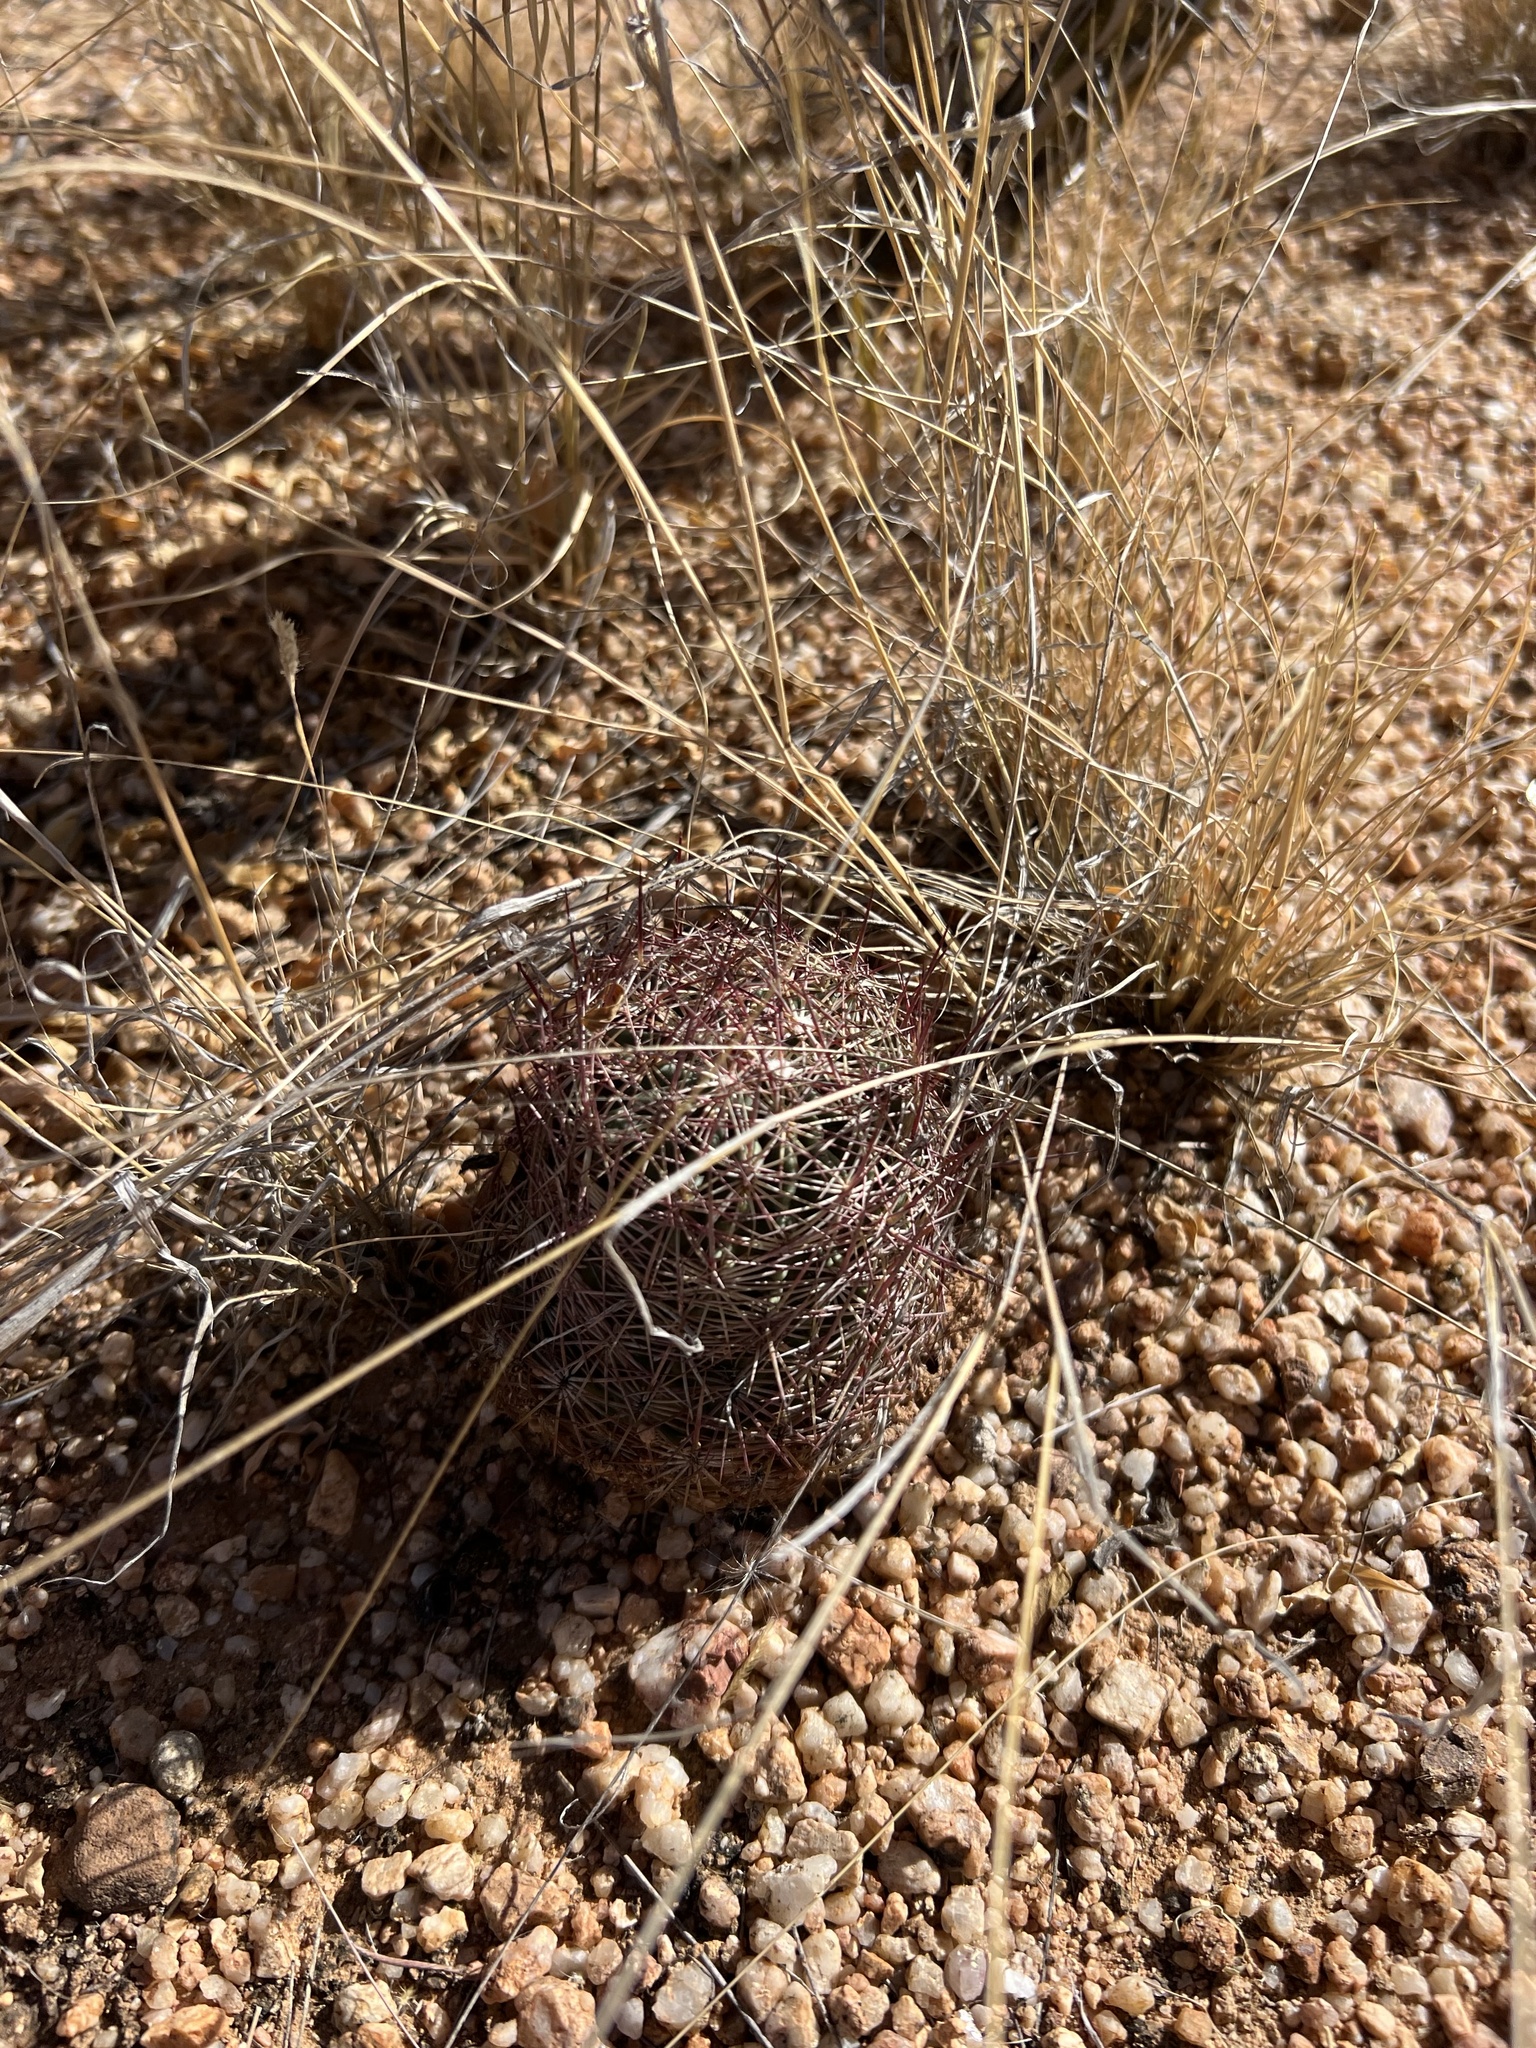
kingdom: Plantae
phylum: Tracheophyta
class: Magnoliopsida
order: Caryophyllales
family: Cactaceae
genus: Sclerocactus
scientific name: Sclerocactus johnsonii
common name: Eight-spine fishhook cactus
